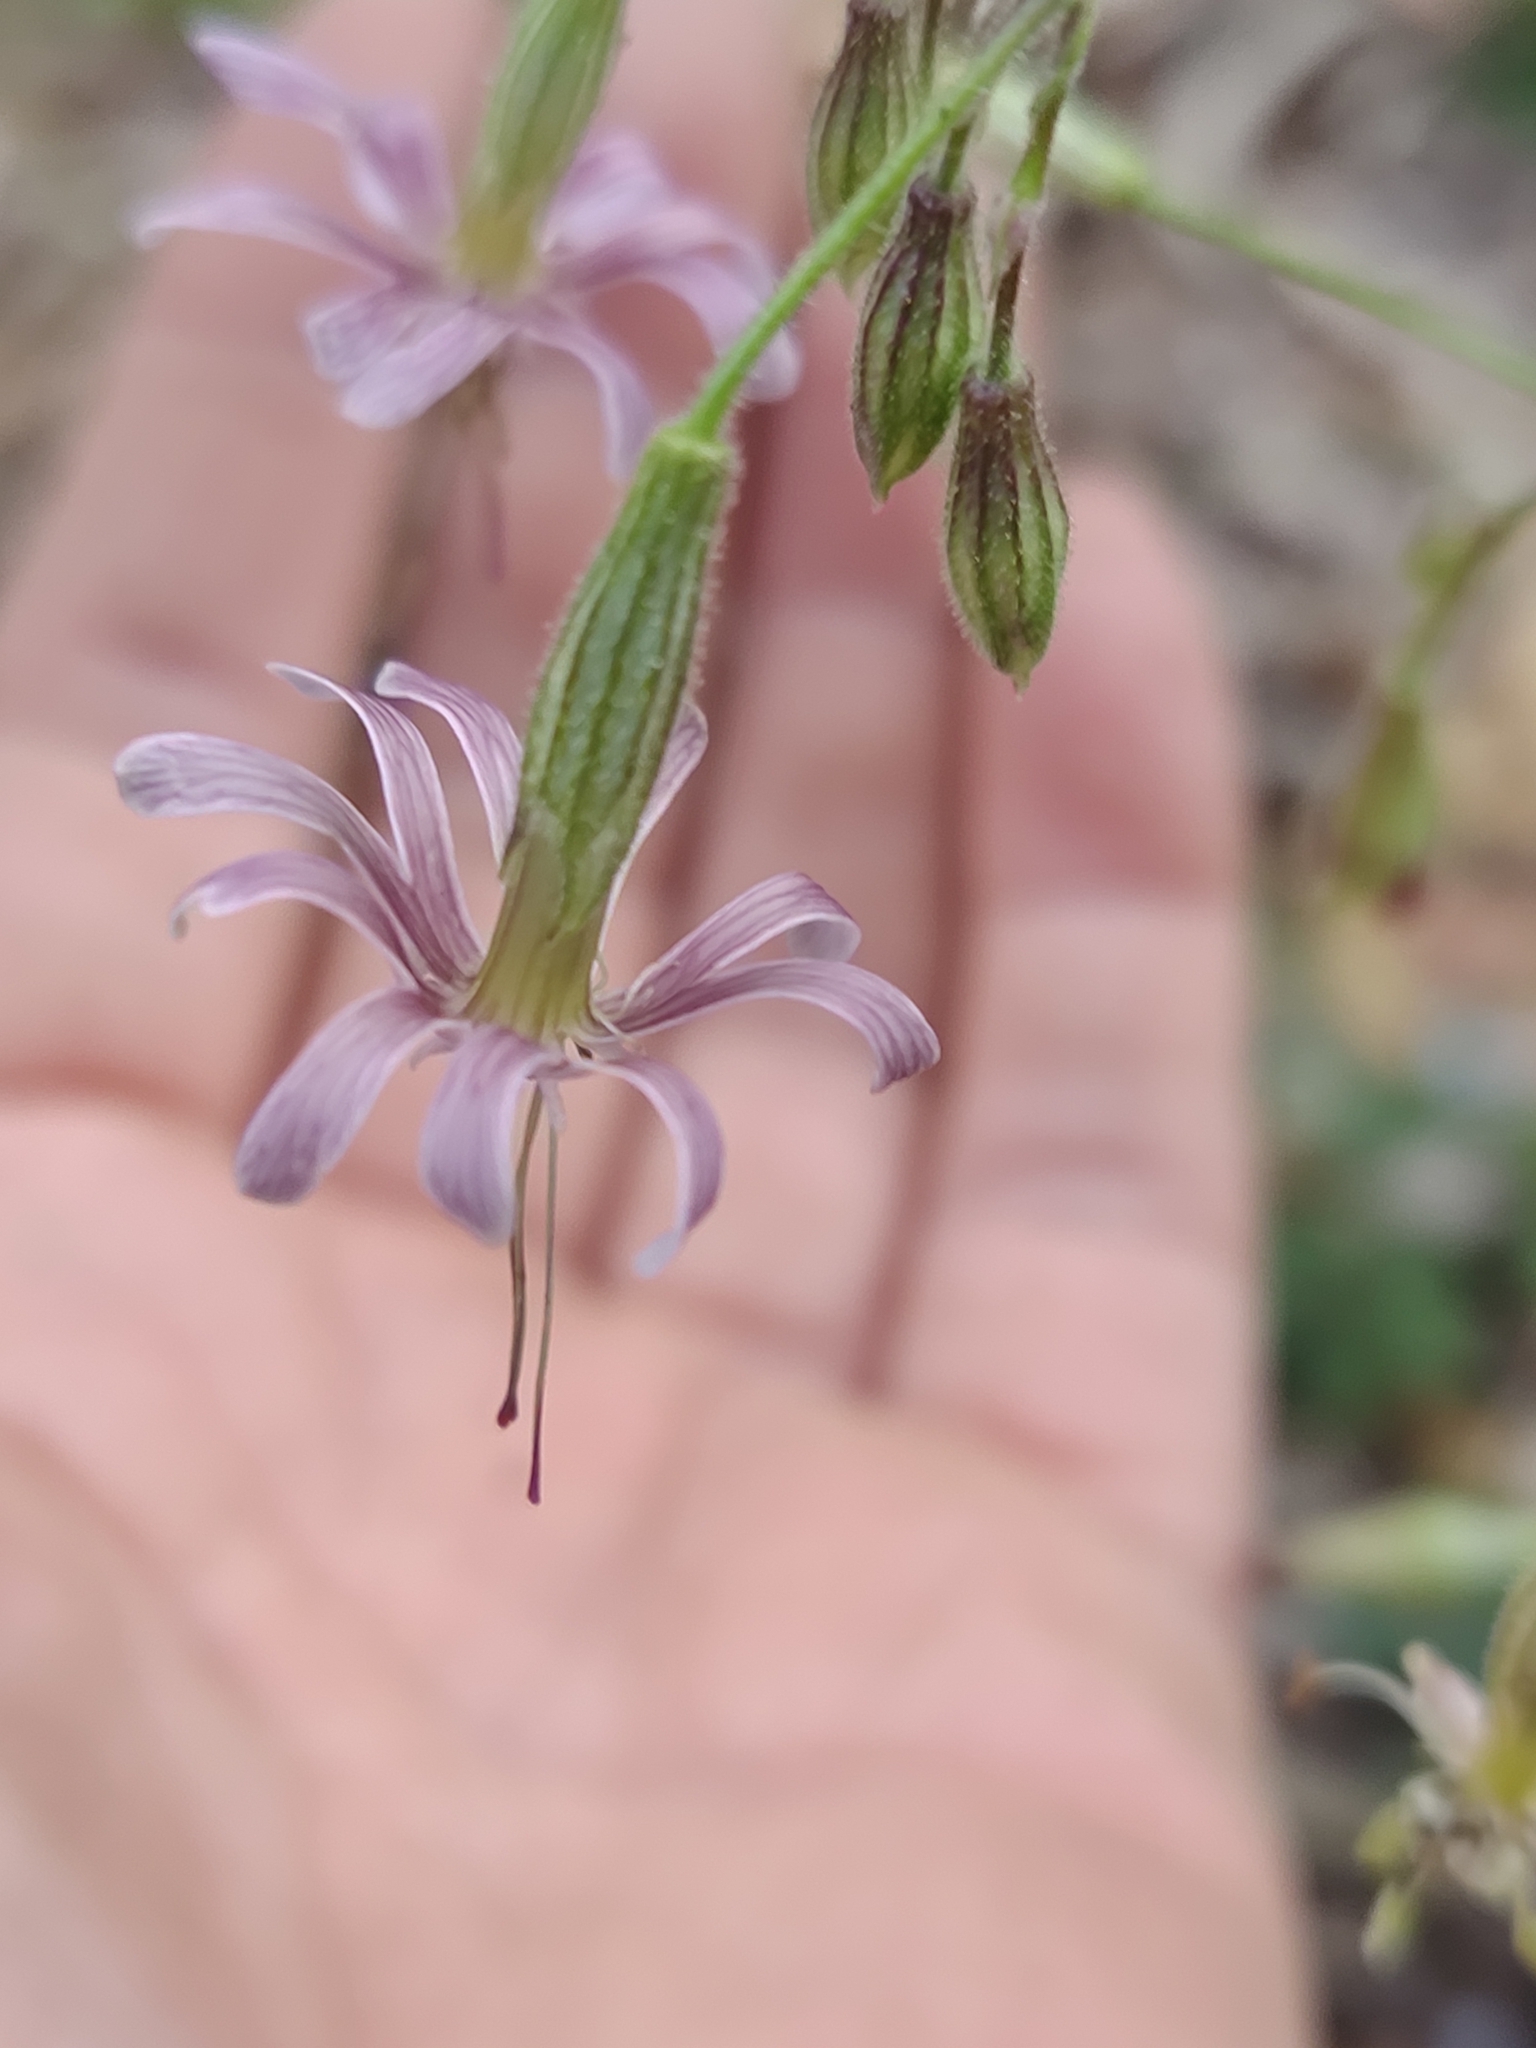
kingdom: Plantae
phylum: Tracheophyta
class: Magnoliopsida
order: Caryophyllales
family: Caryophyllaceae
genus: Silene
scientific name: Silene nutans
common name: Nottingham catchfly
